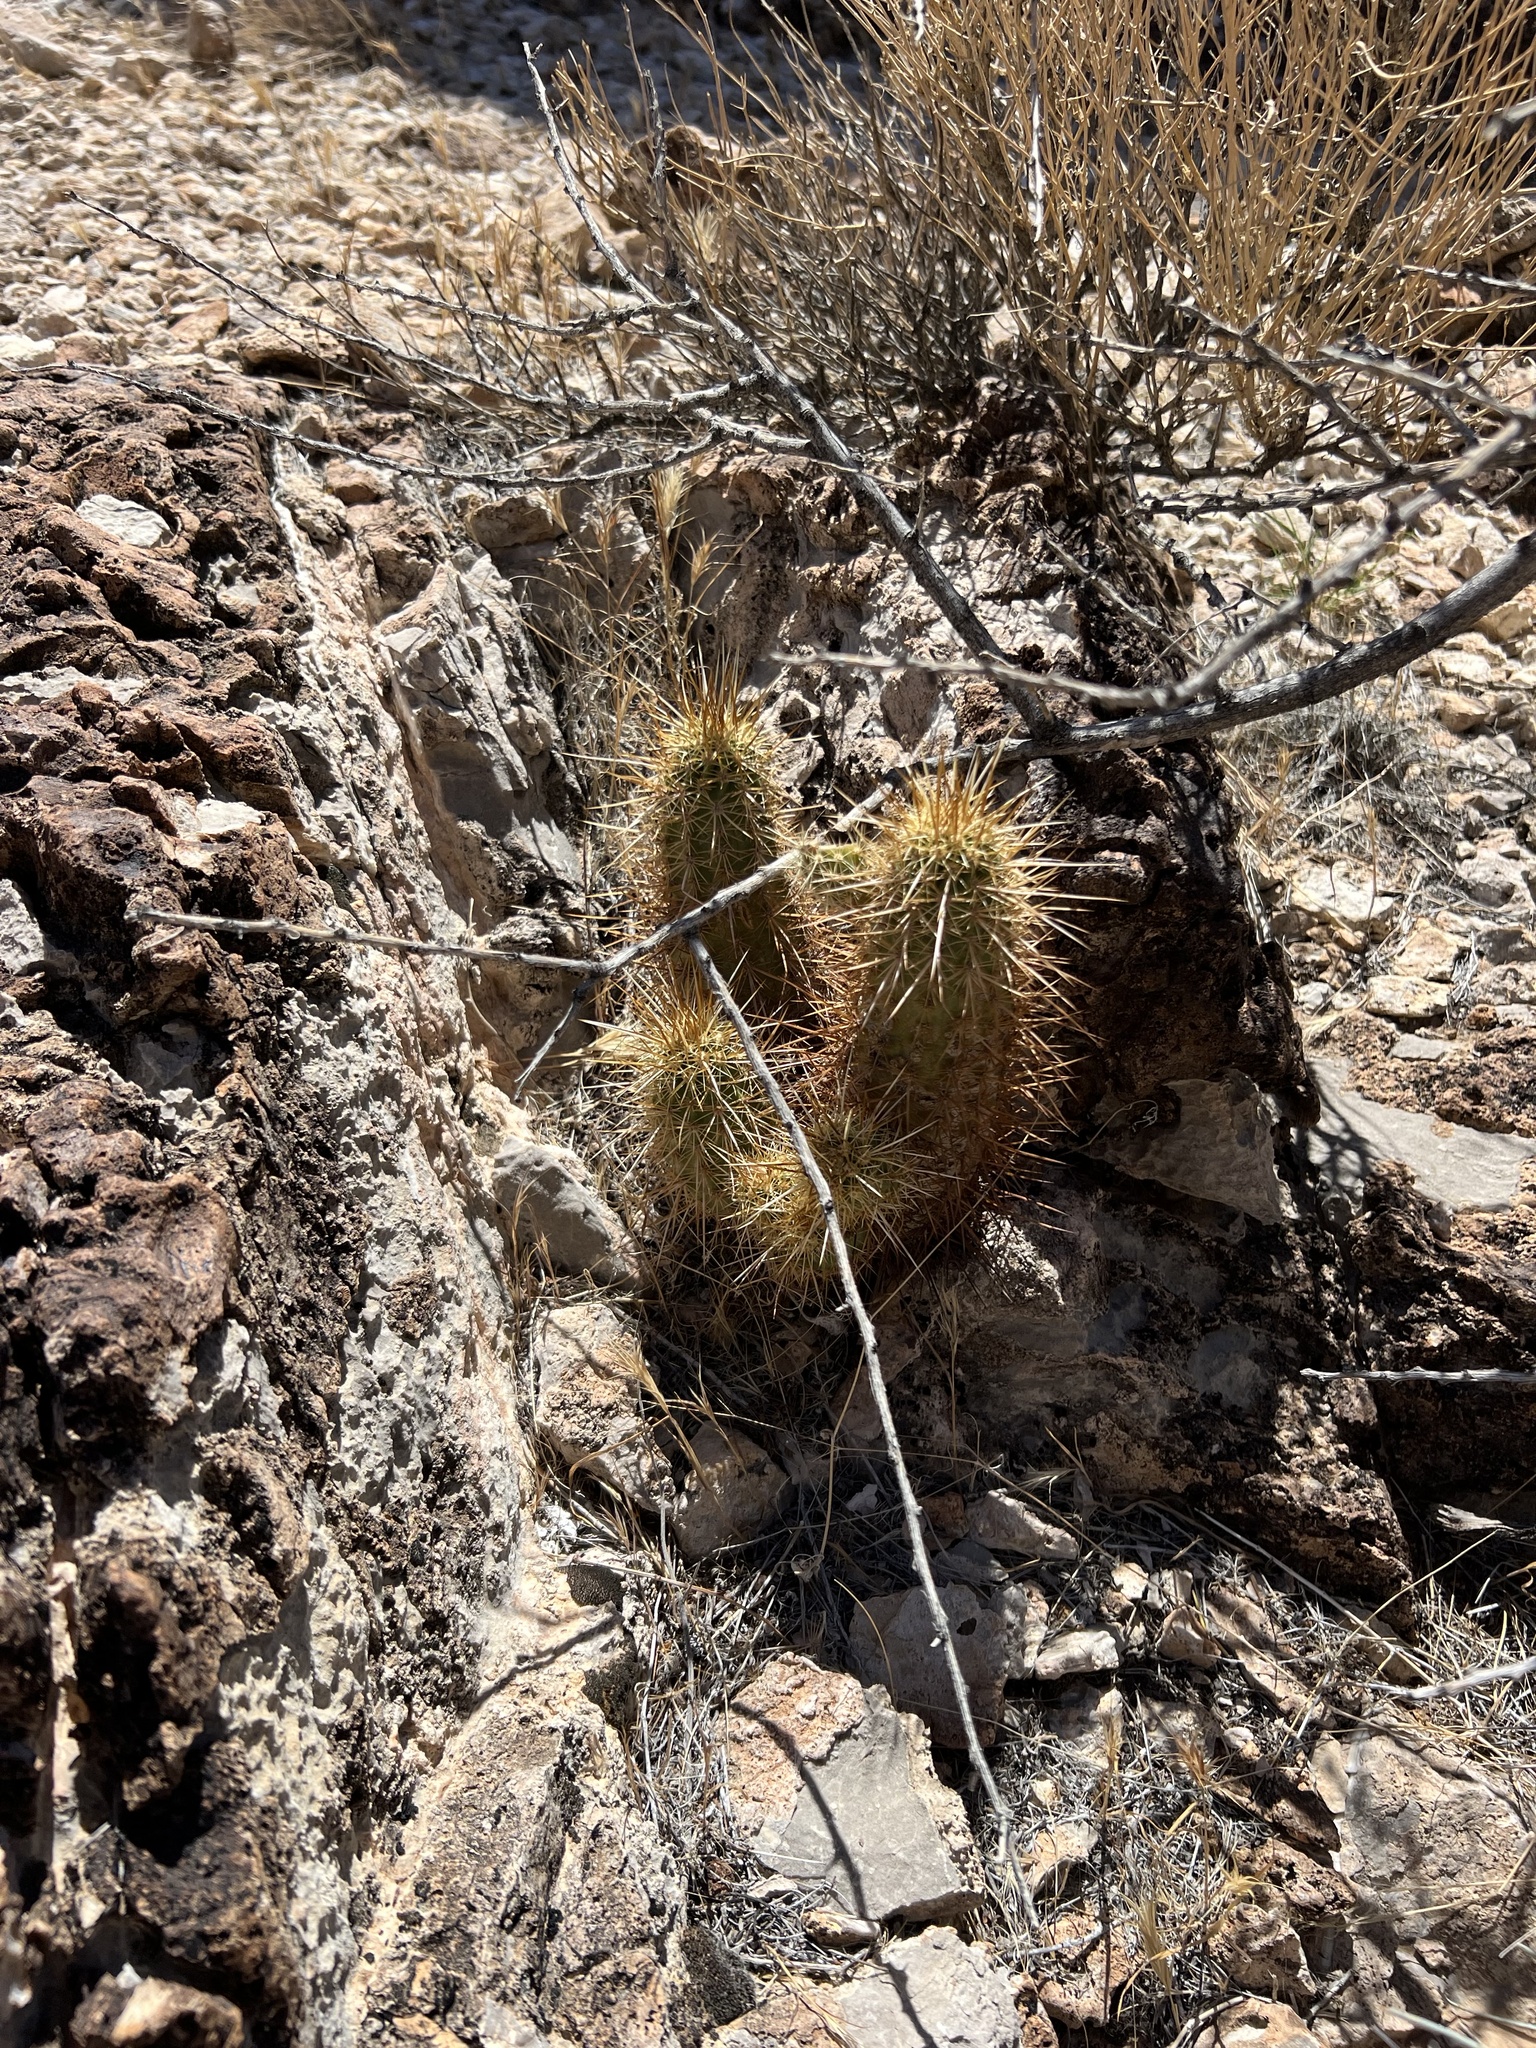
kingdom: Plantae
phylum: Tracheophyta
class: Magnoliopsida
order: Caryophyllales
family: Cactaceae
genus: Echinocereus
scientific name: Echinocereus engelmannii
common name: Engelmann's hedgehog cactus
